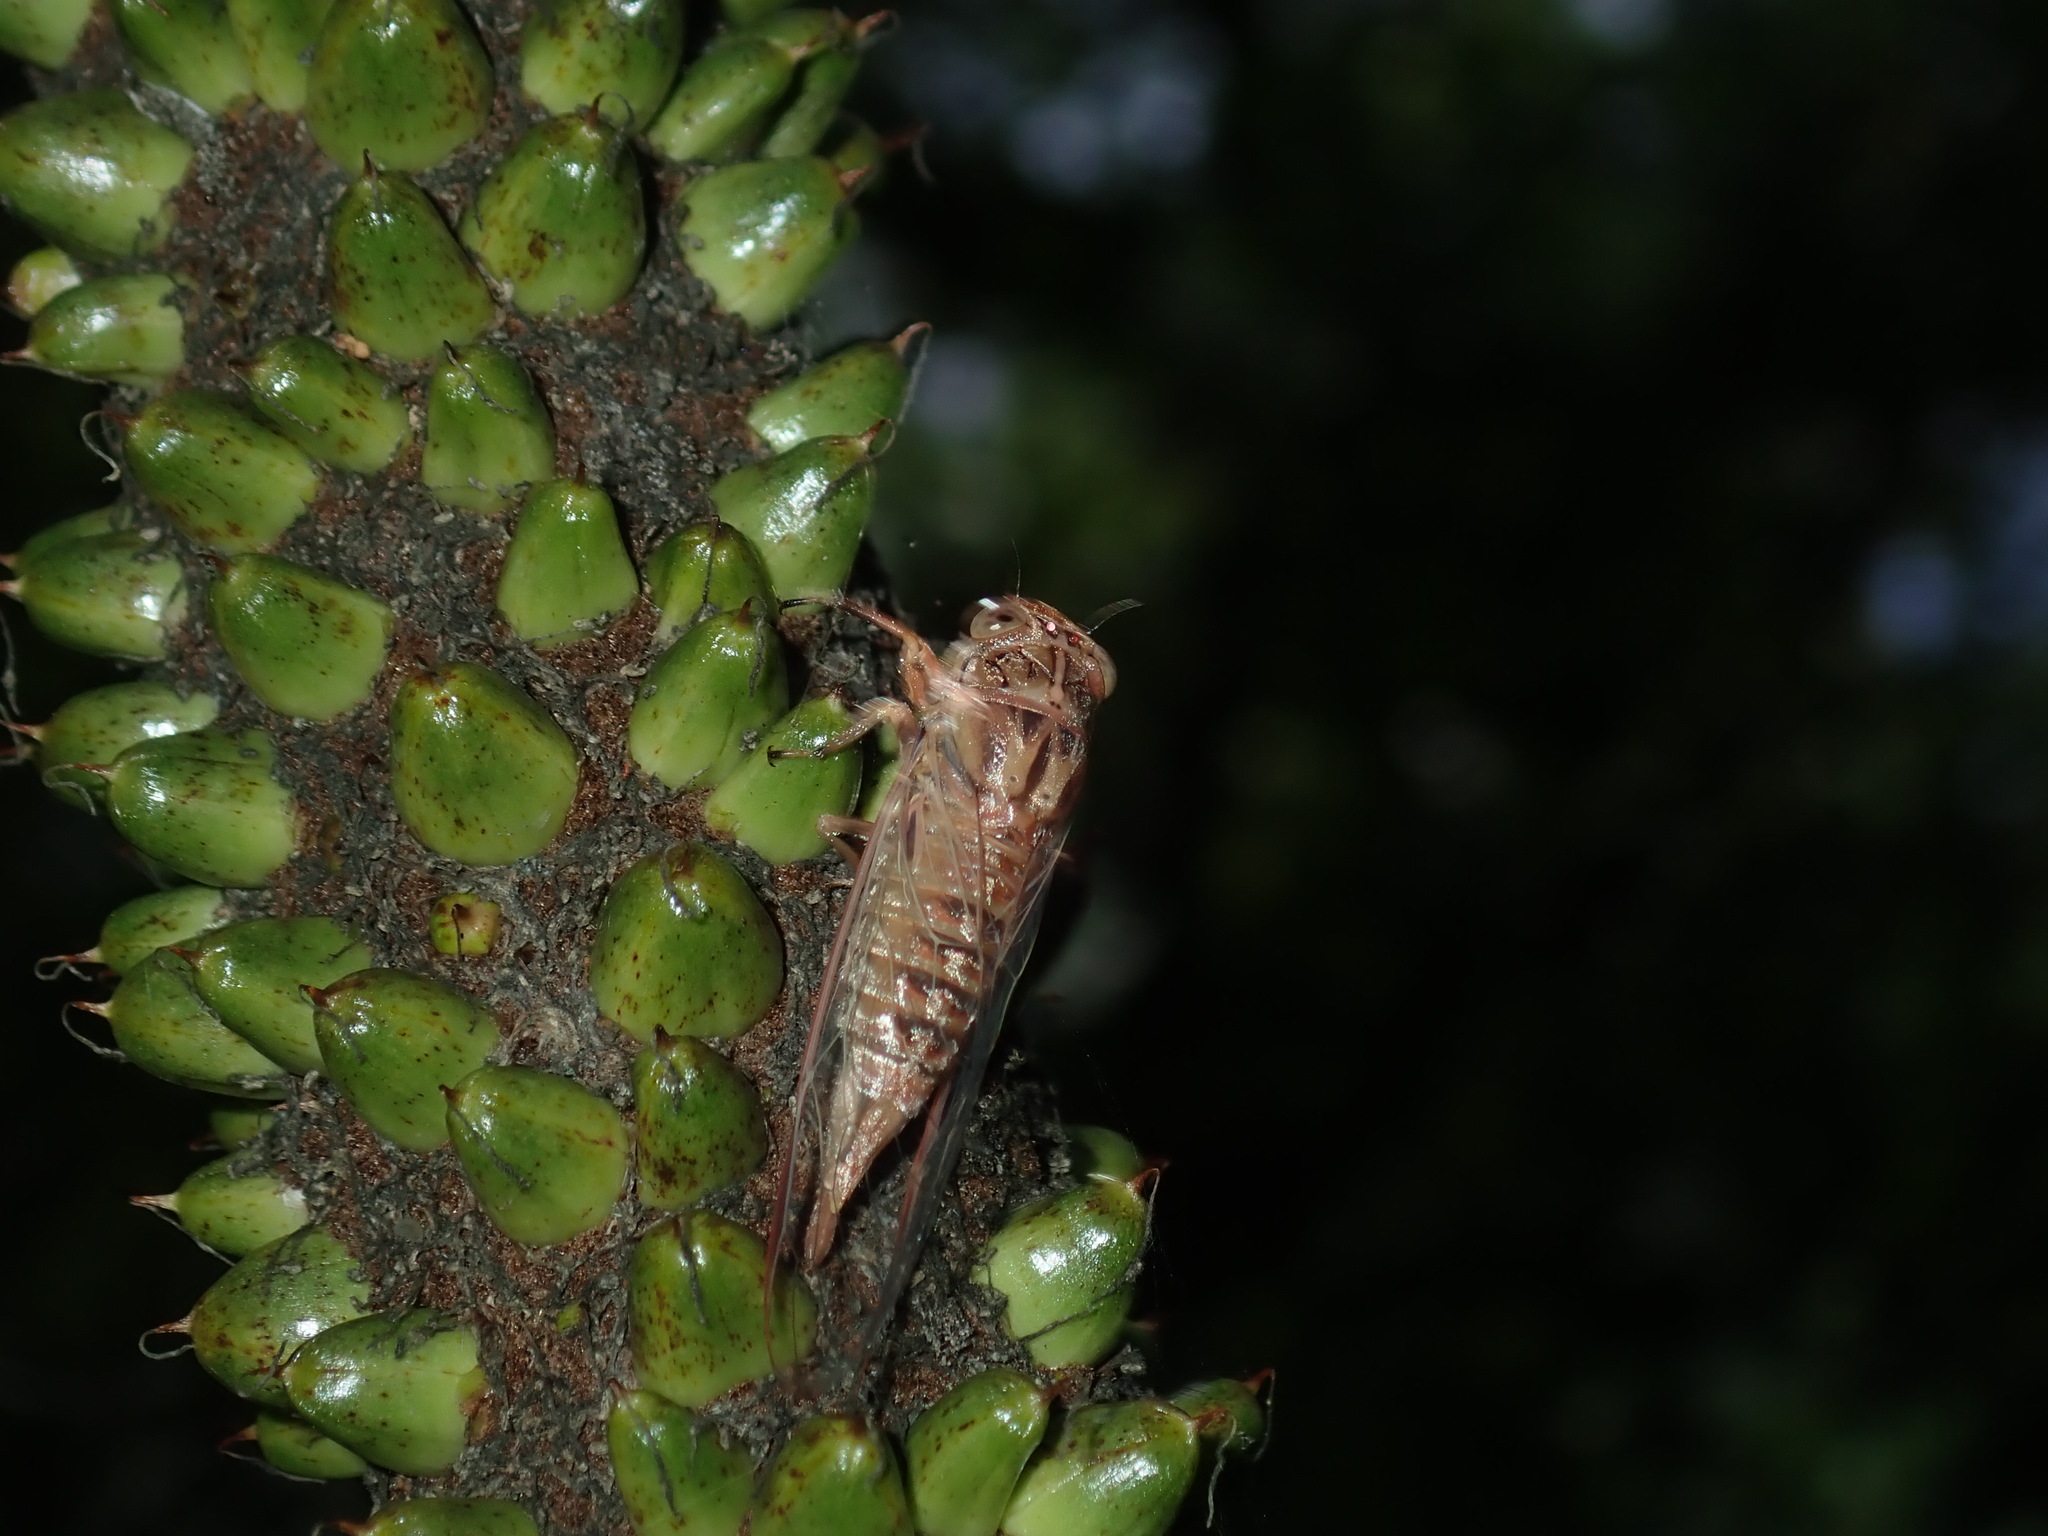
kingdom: Animalia
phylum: Arthropoda
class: Insecta
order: Hemiptera
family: Cicadidae
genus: Telmapsalta
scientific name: Telmapsalta hackeri
